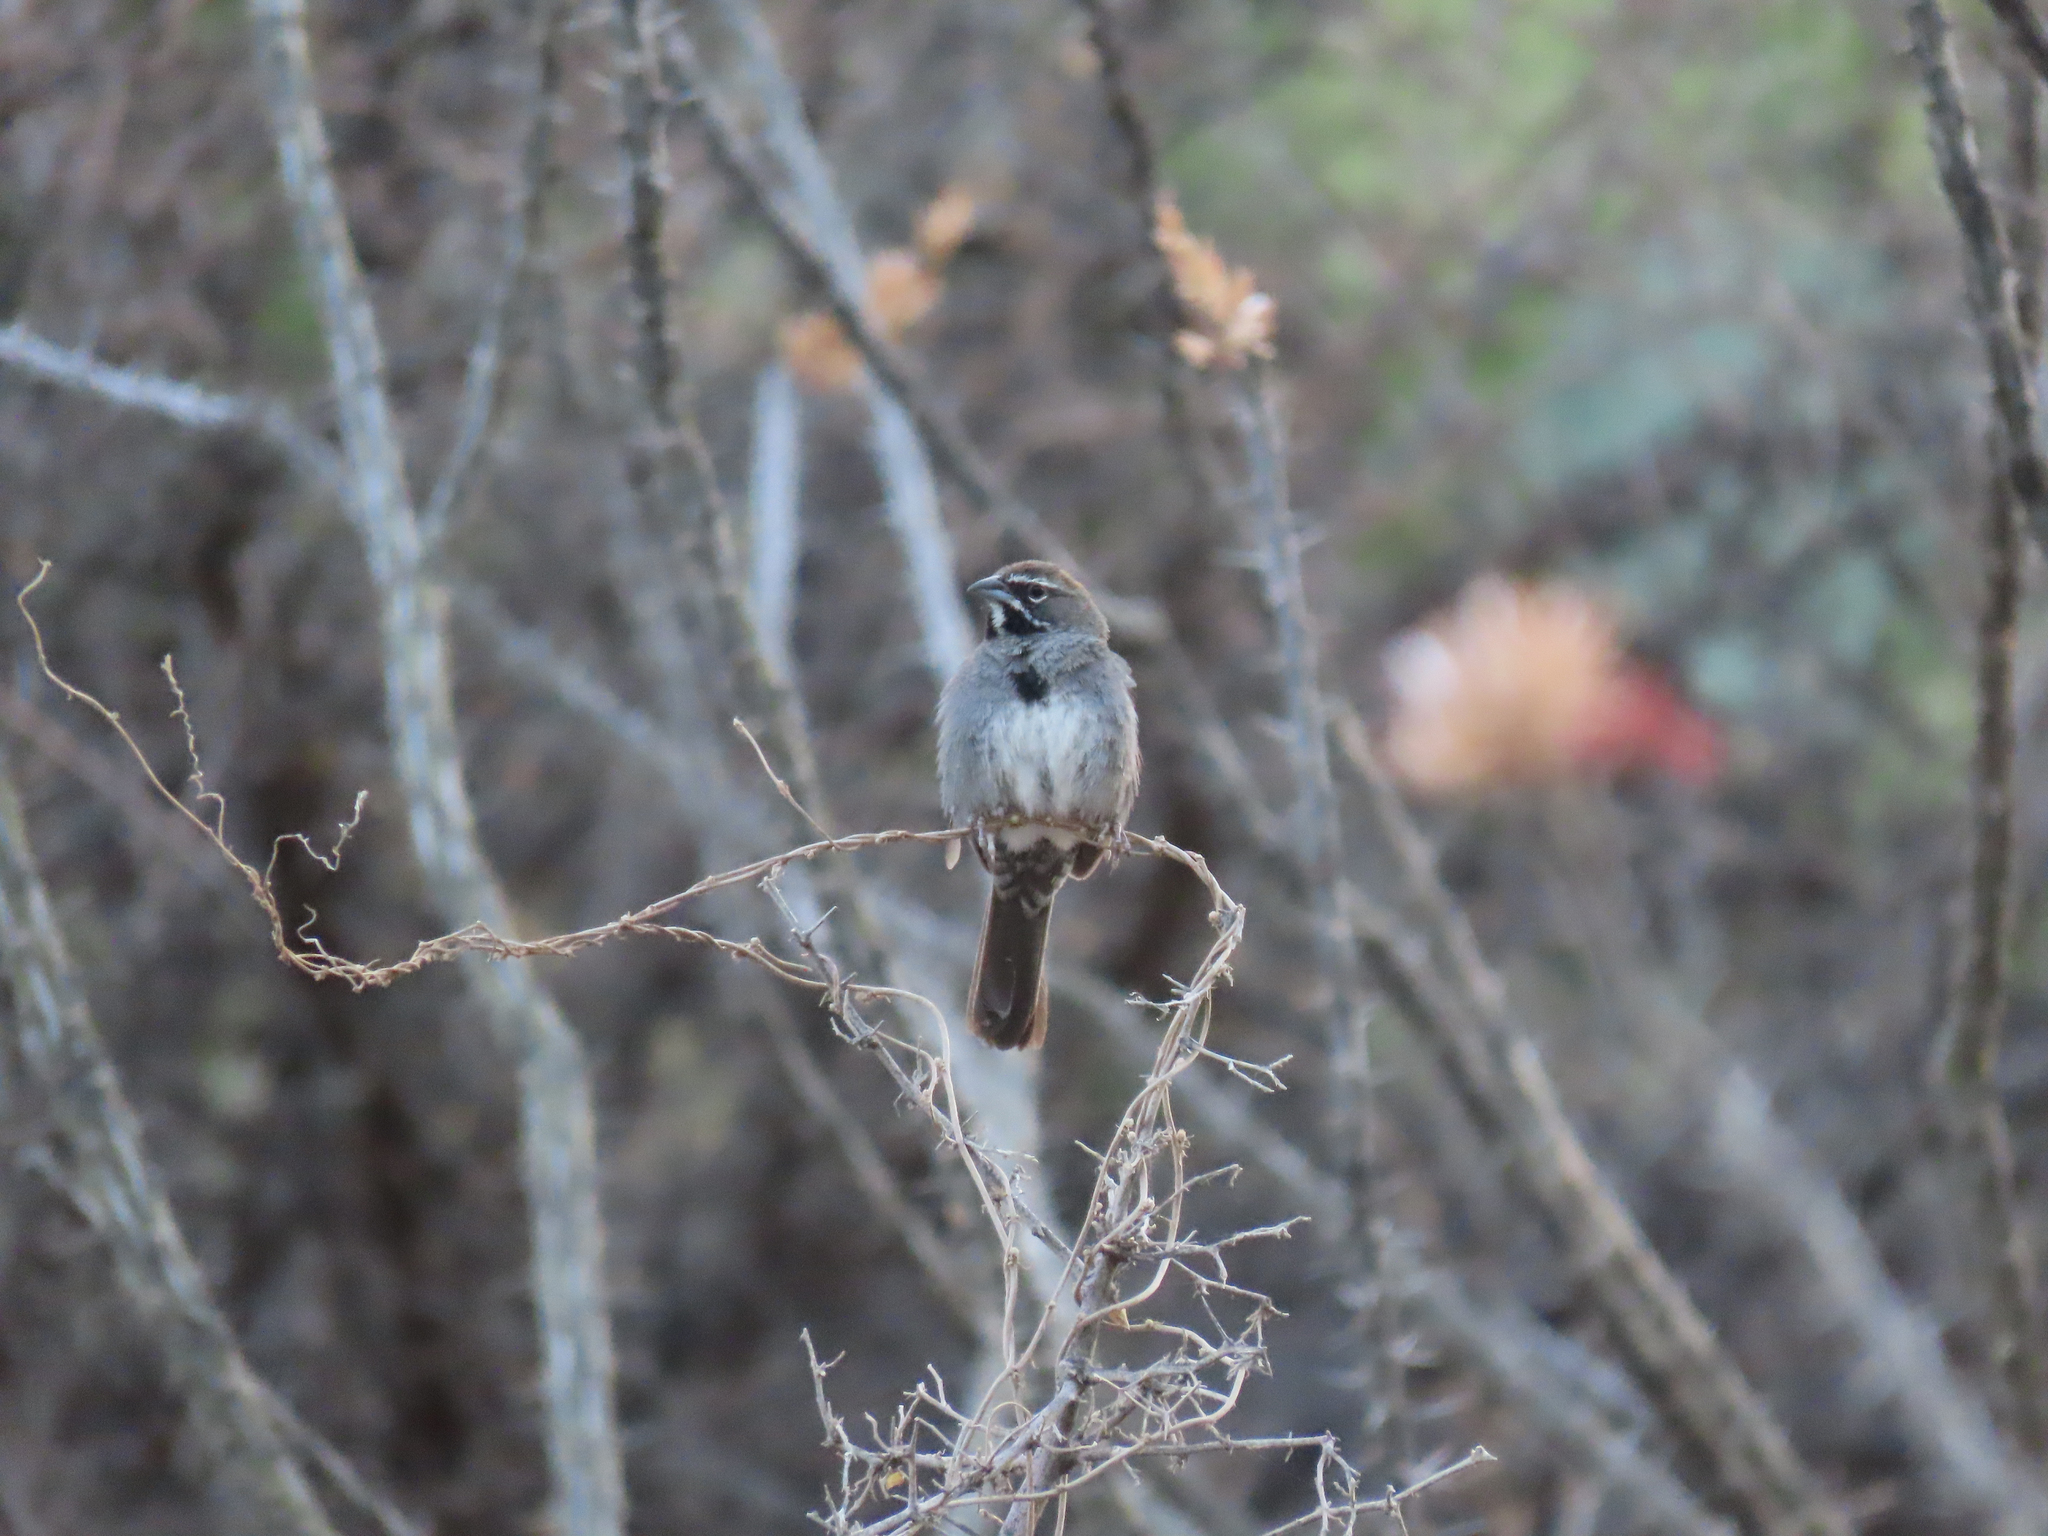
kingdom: Animalia
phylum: Chordata
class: Aves
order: Passeriformes
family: Passerellidae
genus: Amphispizopsis
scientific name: Amphispizopsis quinquestriata
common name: Five-striped sparrow
